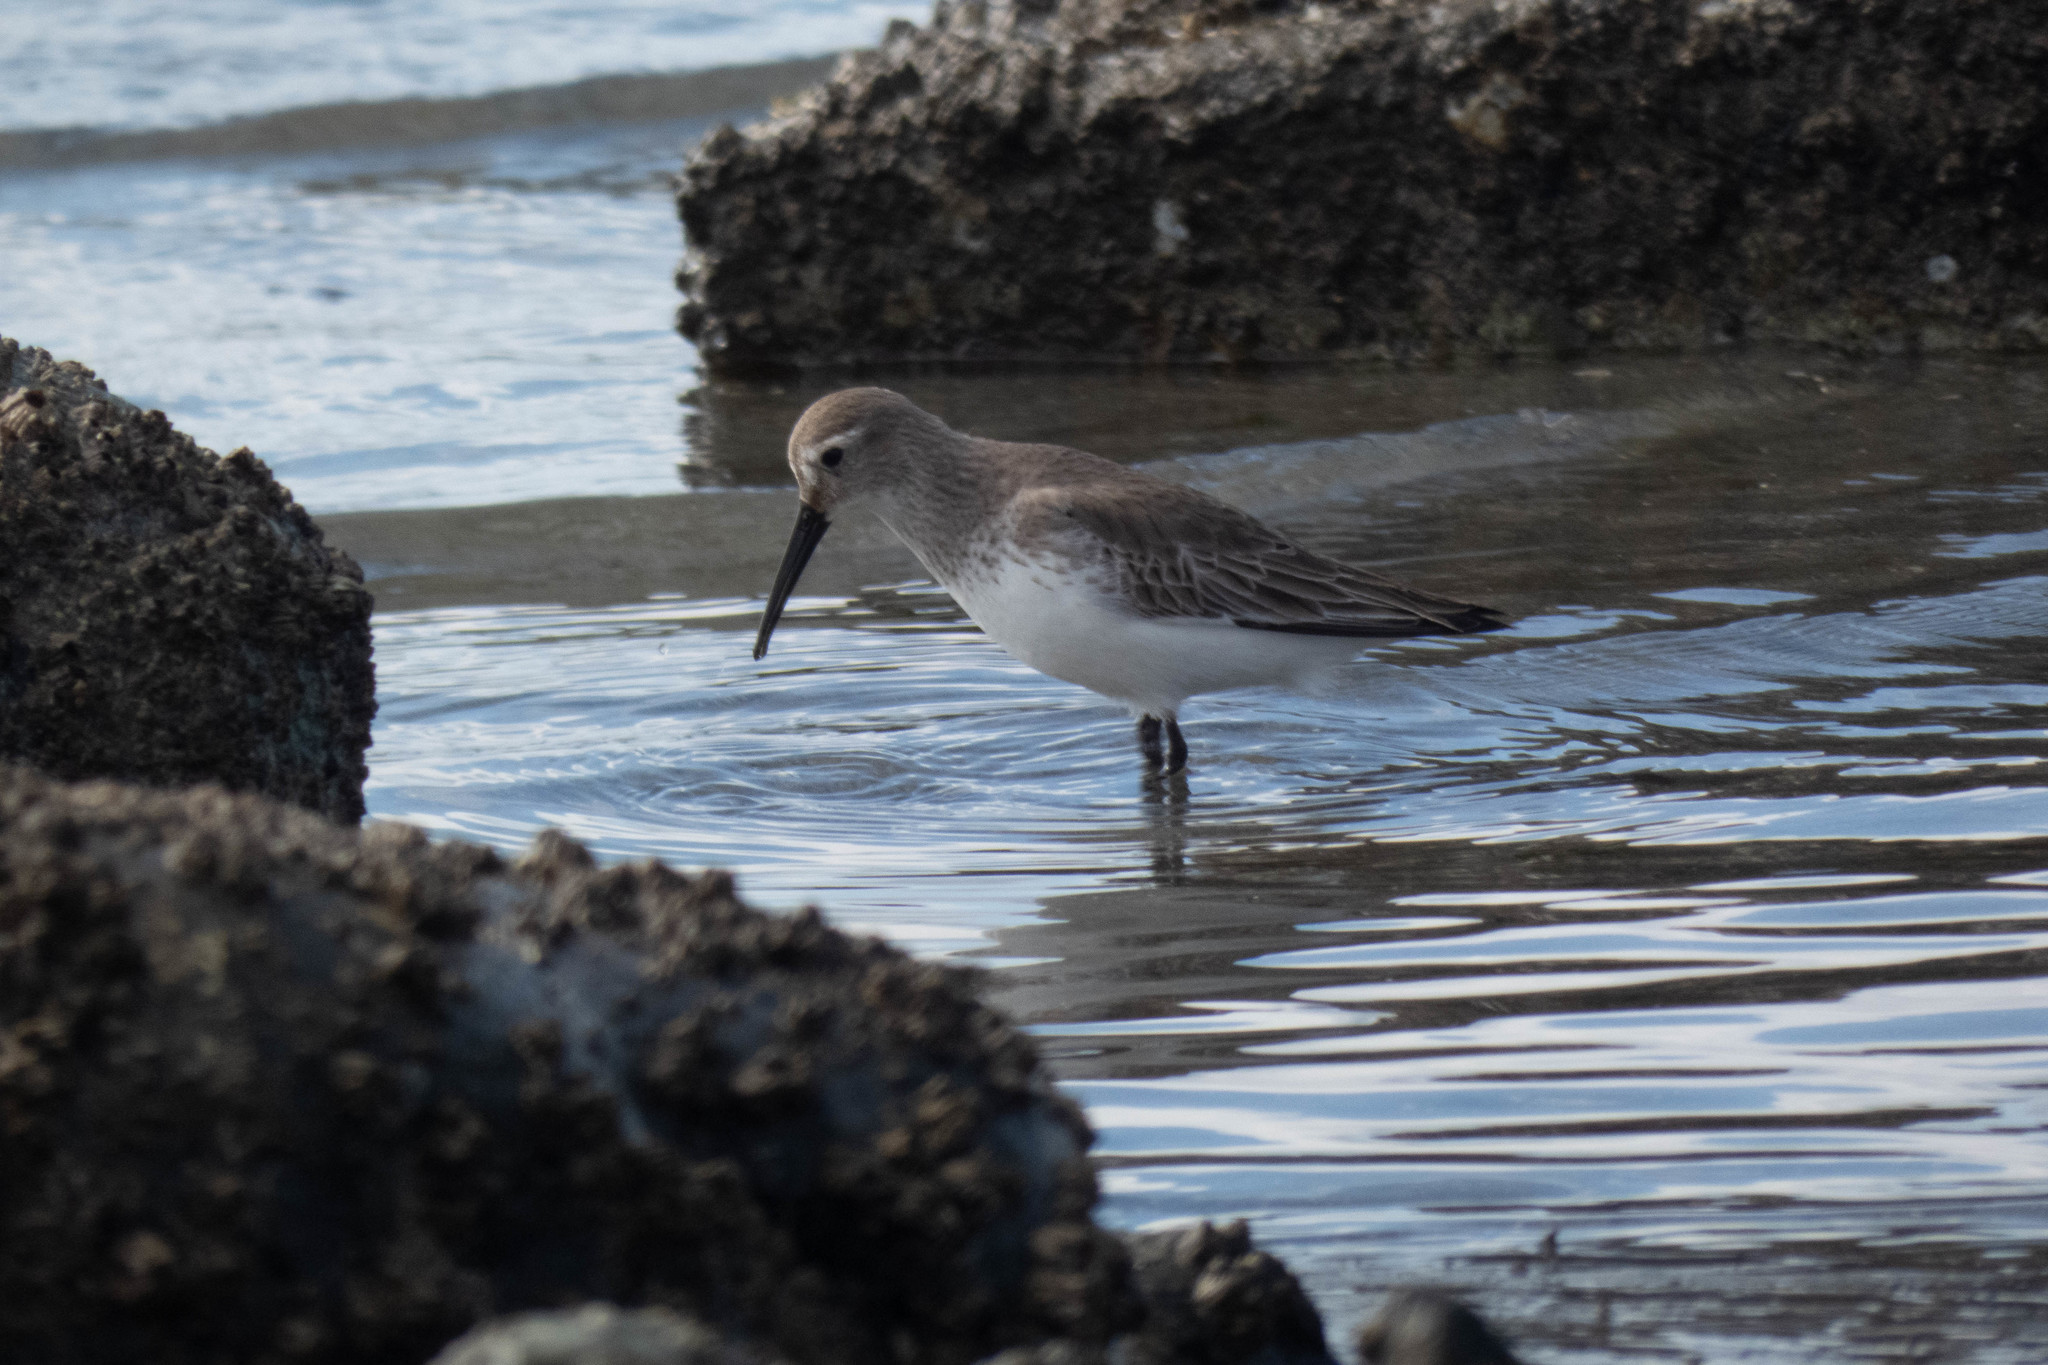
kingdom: Animalia
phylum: Chordata
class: Aves
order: Charadriiformes
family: Scolopacidae
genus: Calidris
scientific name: Calidris alpina
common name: Dunlin
